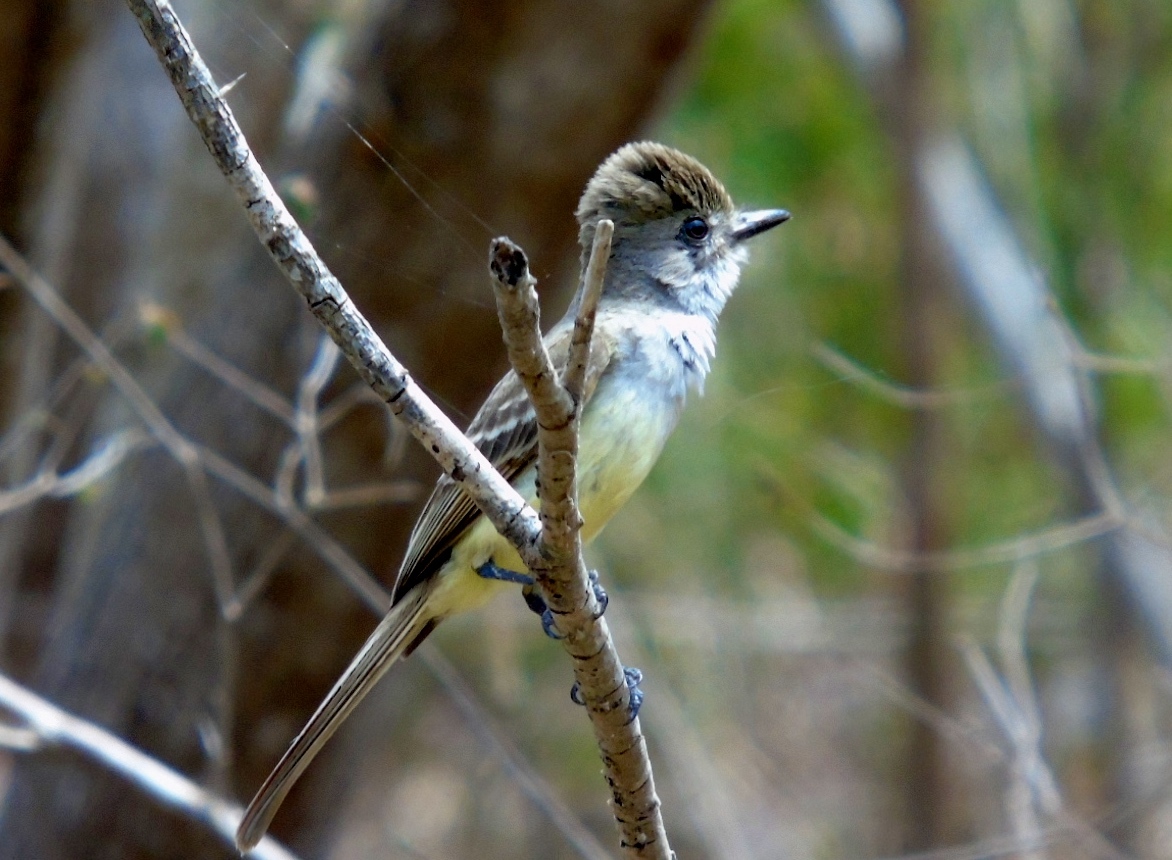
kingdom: Animalia
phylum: Chordata
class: Aves
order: Passeriformes
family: Tyrannidae
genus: Myiarchus
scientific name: Myiarchus cinerascens
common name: Ash-throated flycatcher
